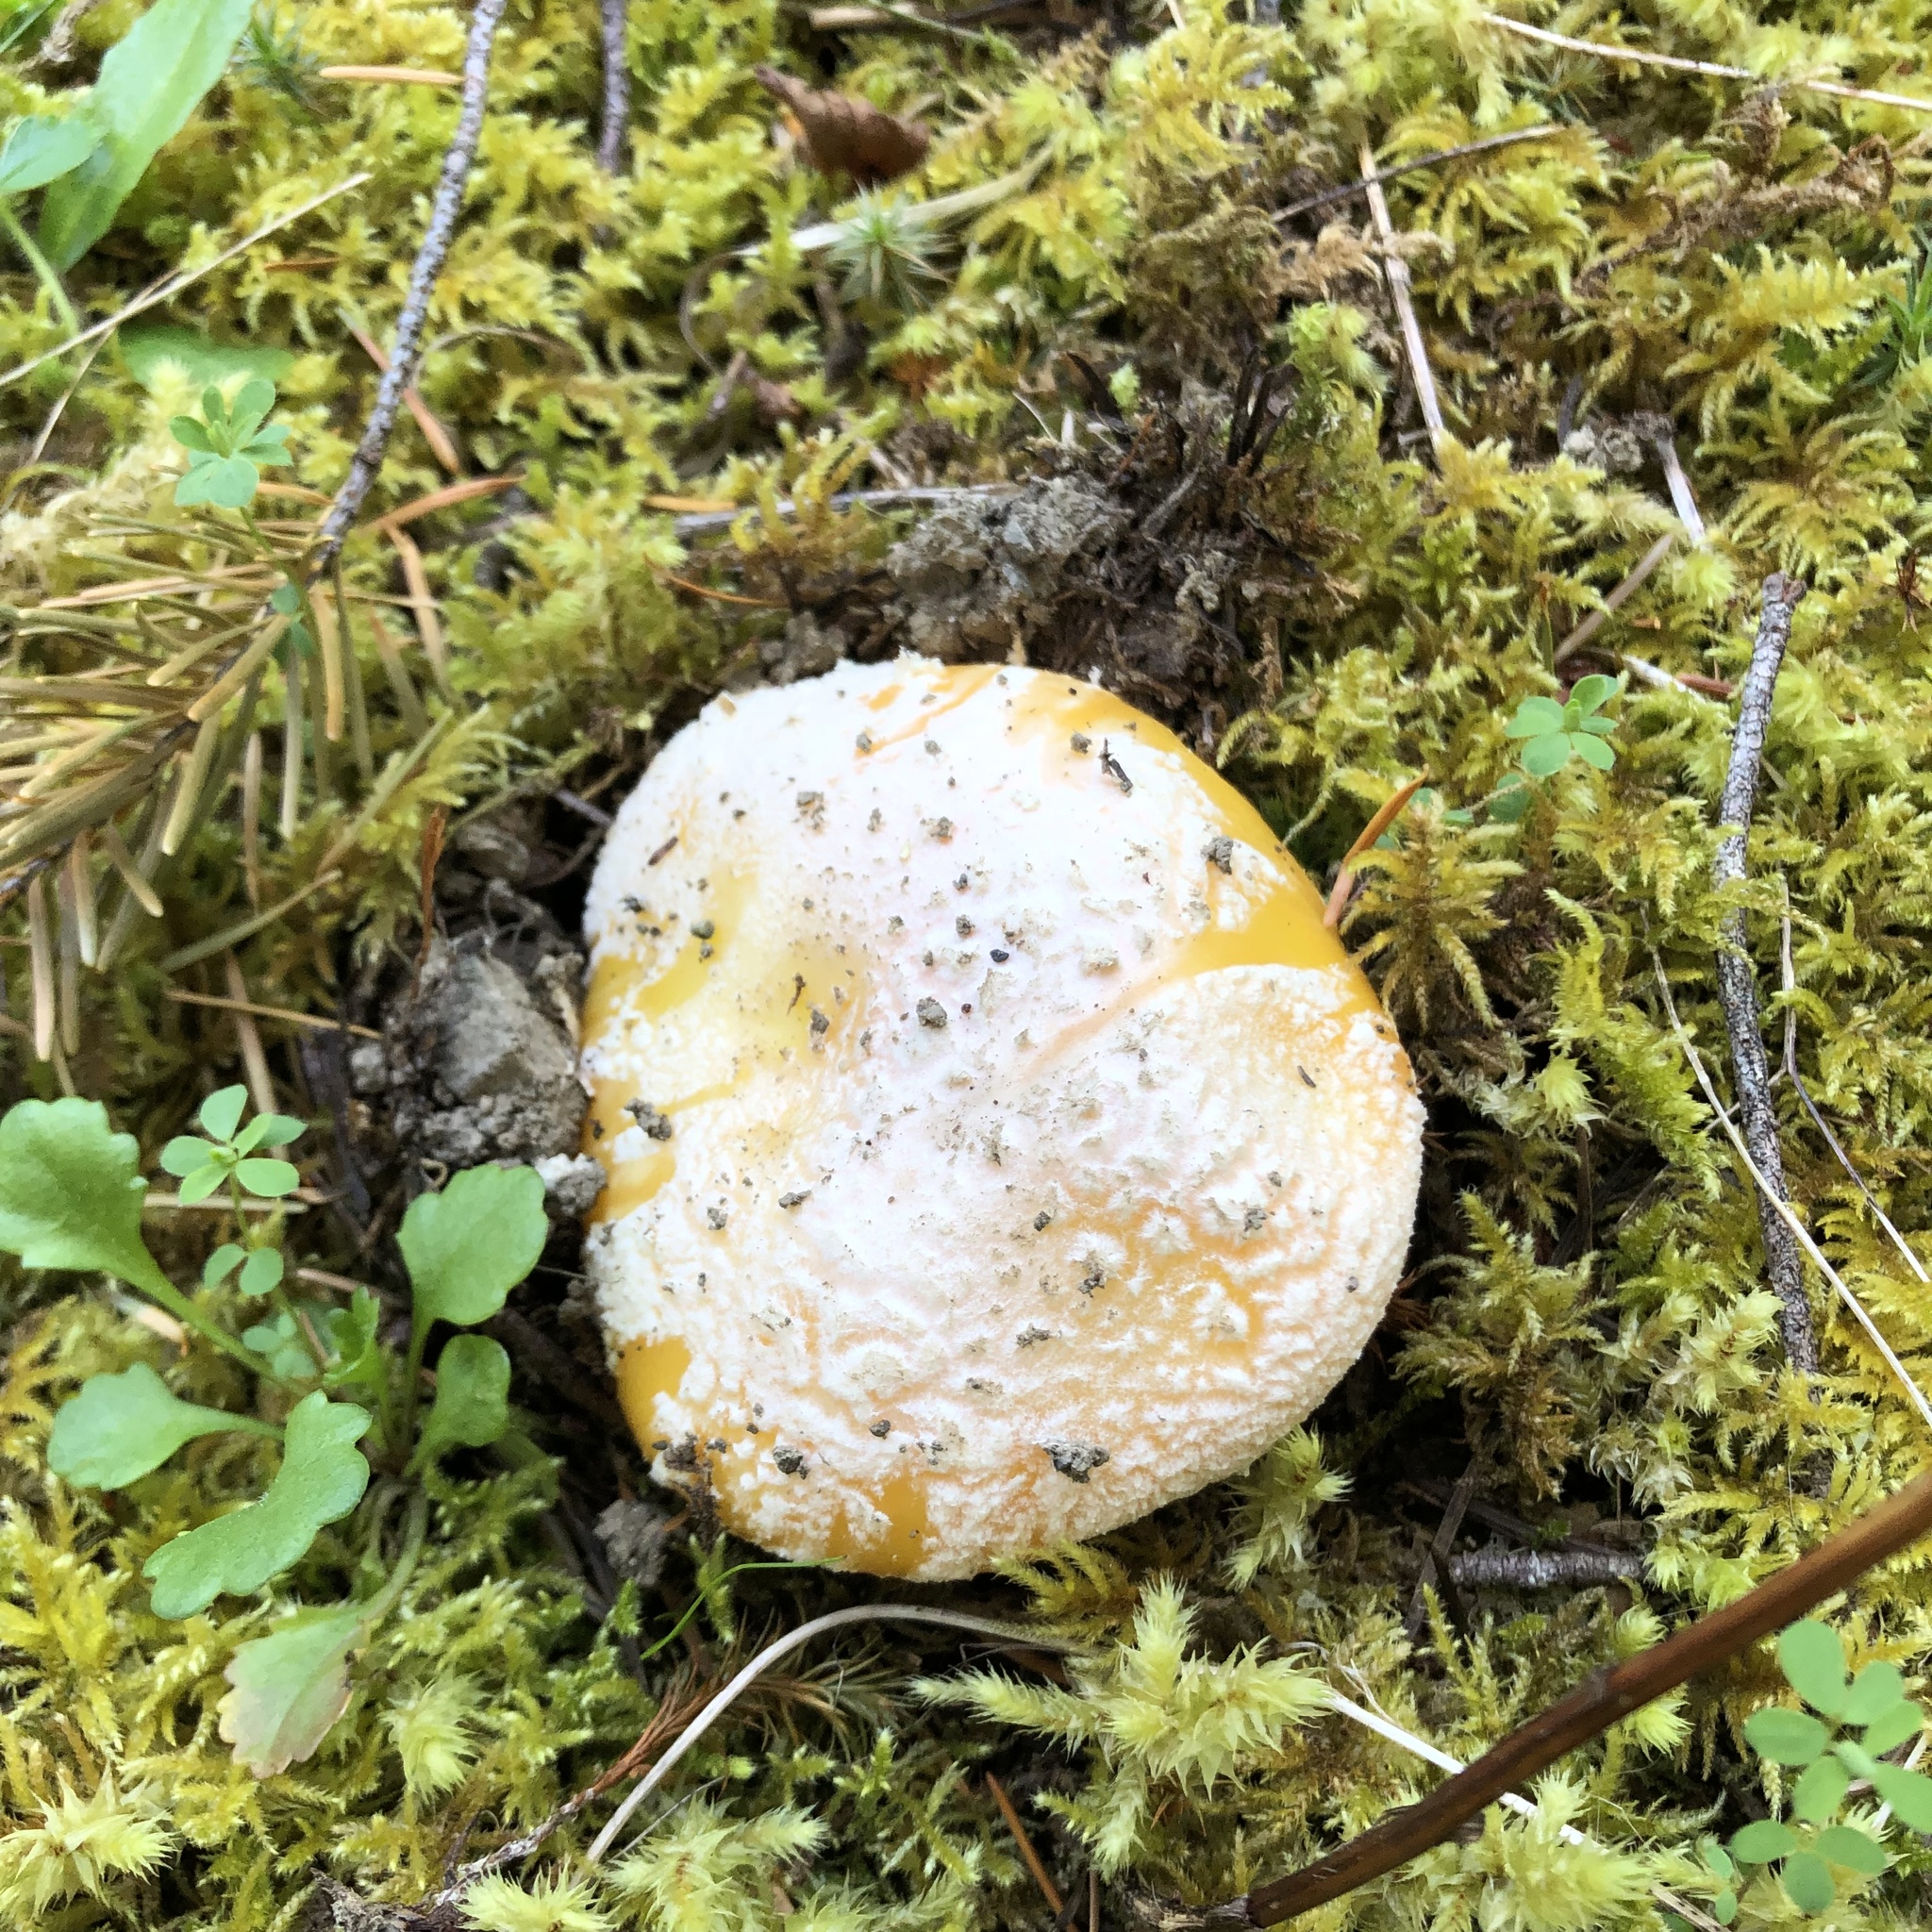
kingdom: Fungi
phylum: Basidiomycota
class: Agaricomycetes
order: Agaricales
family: Amanitaceae
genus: Amanita
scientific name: Amanita aprica
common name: Sunshine amanita
